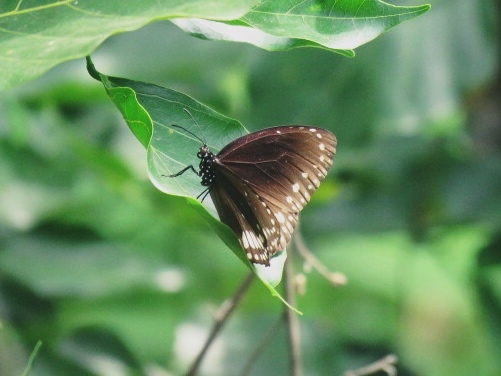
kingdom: Animalia
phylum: Arthropoda
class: Insecta
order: Lepidoptera
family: Nymphalidae
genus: Euploea
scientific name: Euploea core
